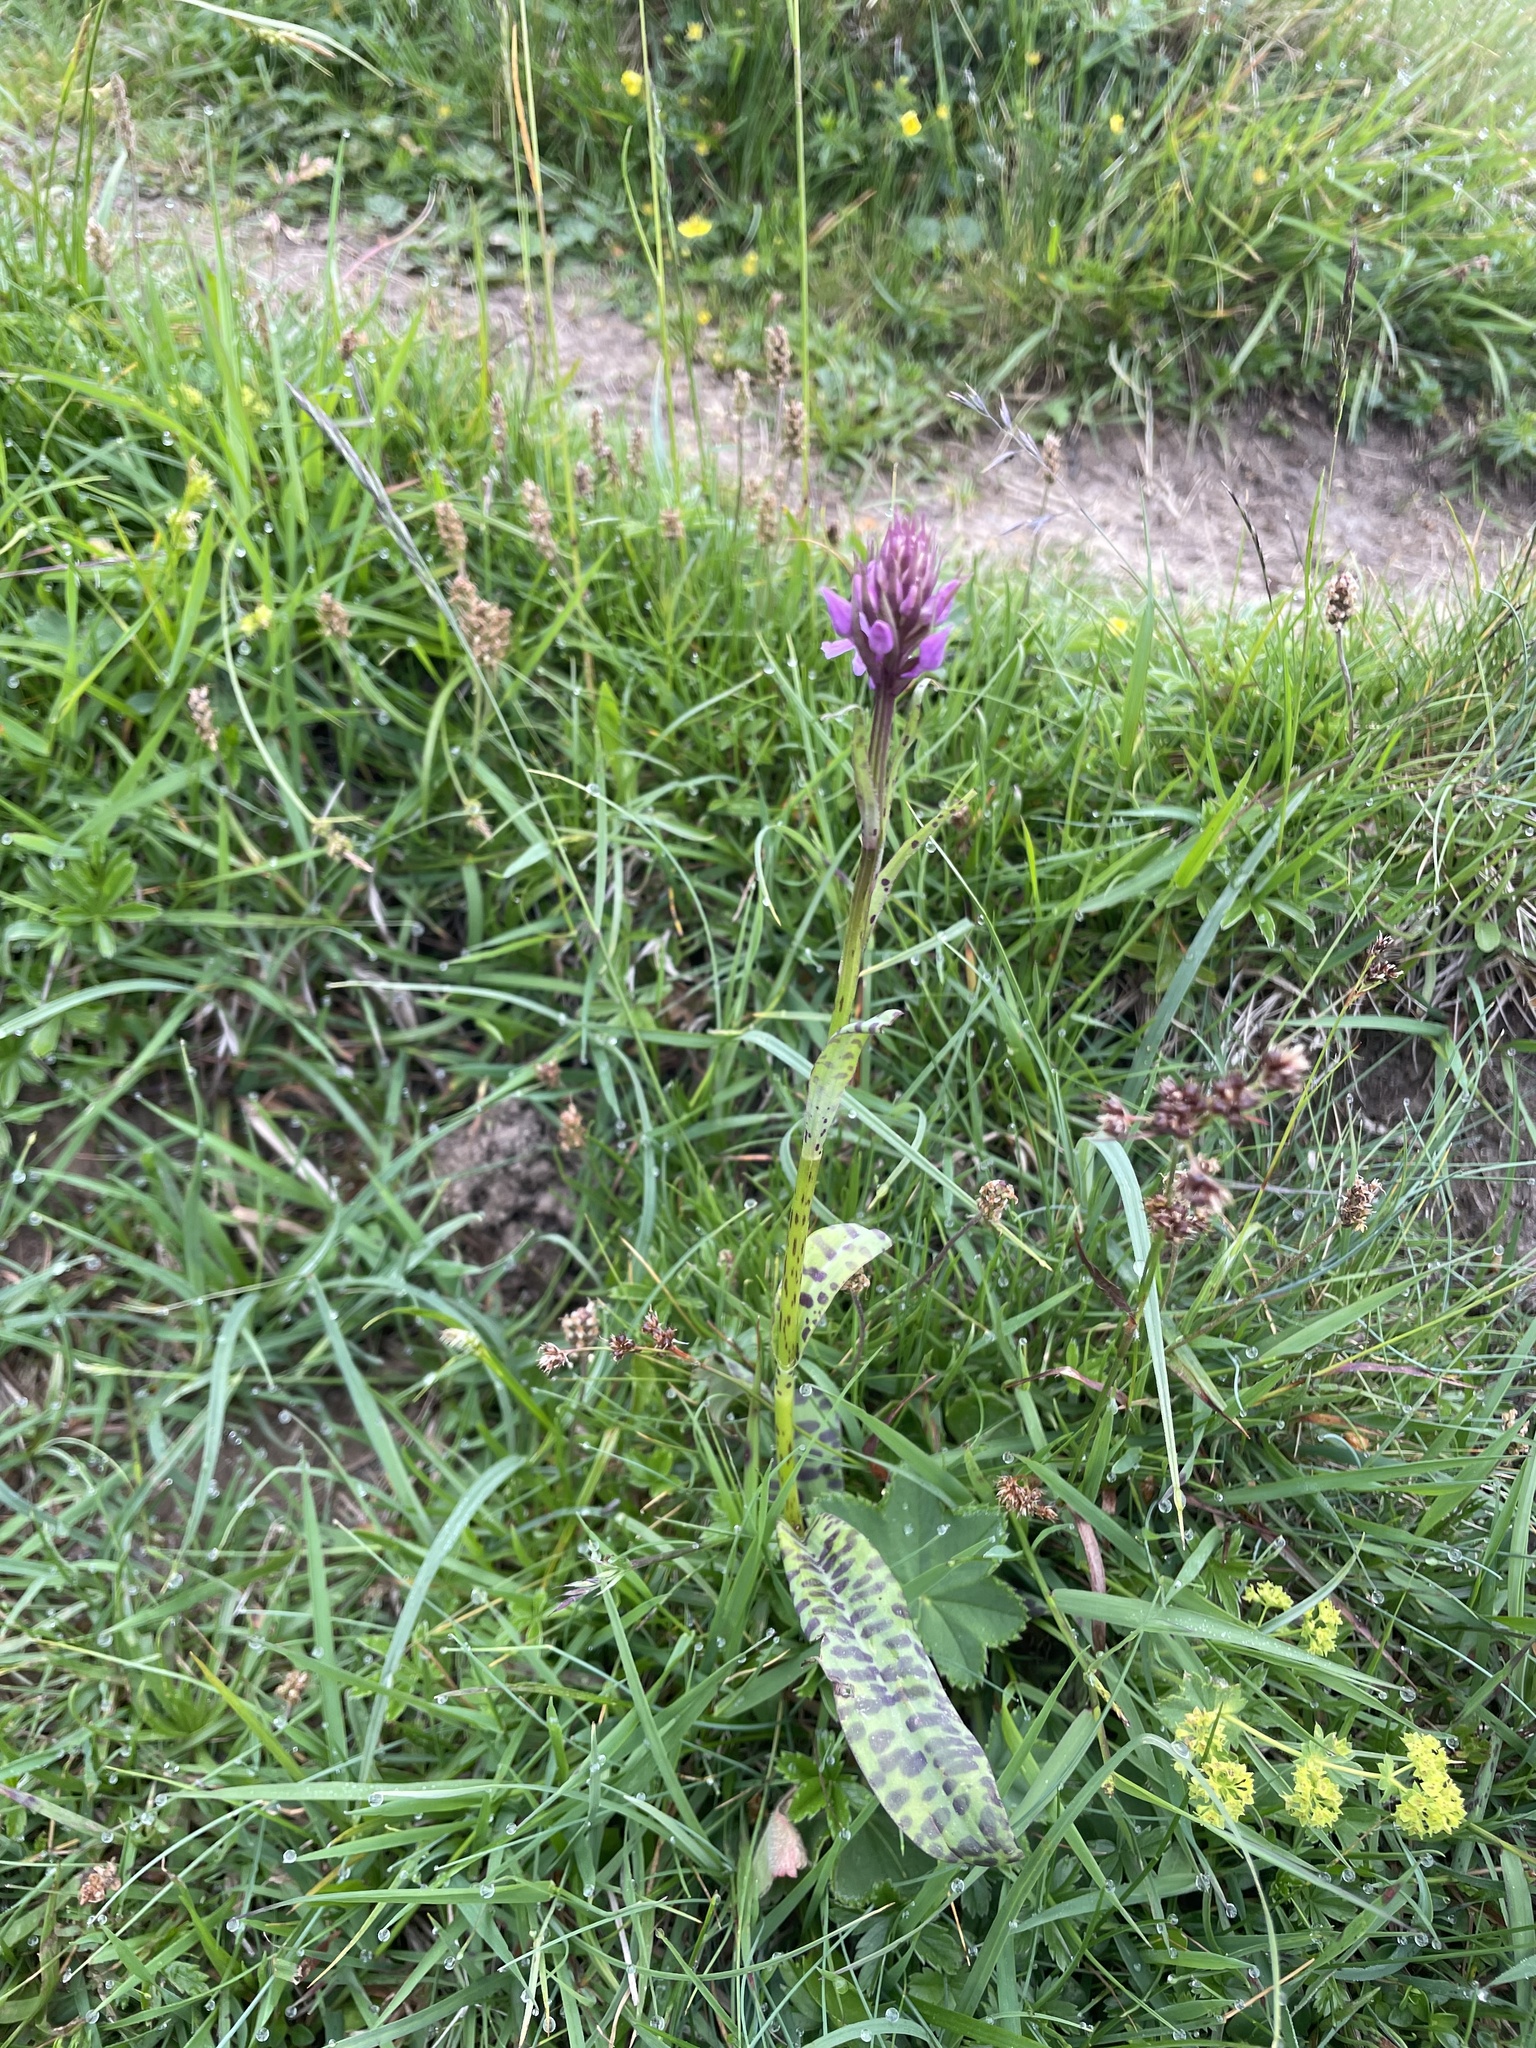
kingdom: Plantae
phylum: Tracheophyta
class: Liliopsida
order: Asparagales
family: Orchidaceae
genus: Dactylorhiza
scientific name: Dactylorhiza maculata
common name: Heath spotted-orchid
